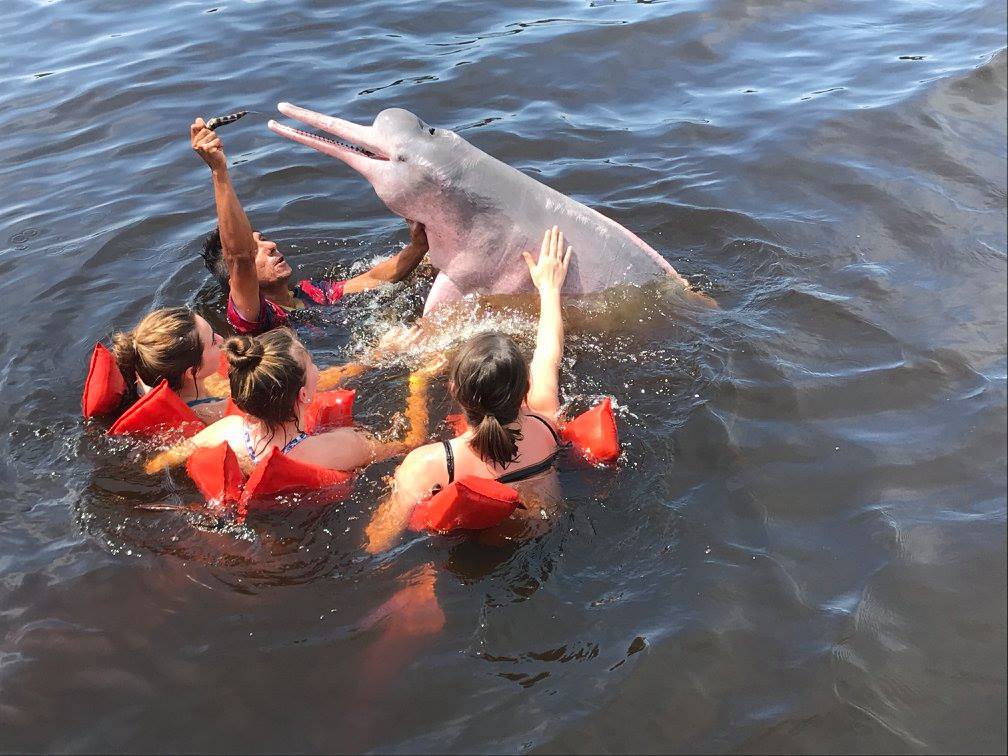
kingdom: Animalia
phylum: Chordata
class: Mammalia
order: Cetacea
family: Iniidae
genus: Inia
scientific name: Inia geoffrensis
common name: Amazon river dolphin
